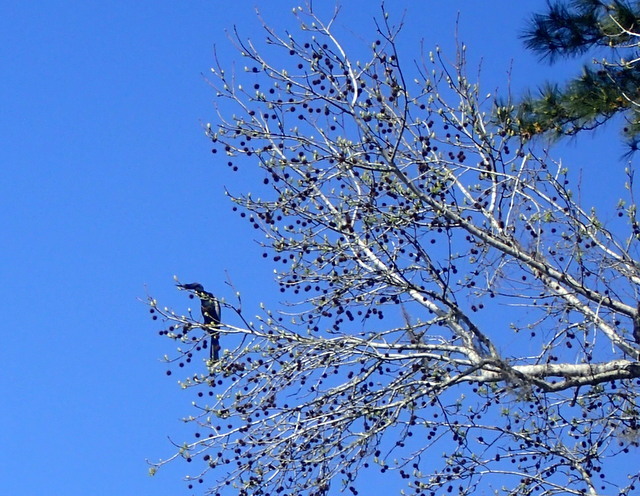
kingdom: Animalia
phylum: Chordata
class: Aves
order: Suliformes
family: Anhingidae
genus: Anhinga
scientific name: Anhinga anhinga
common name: Anhinga
